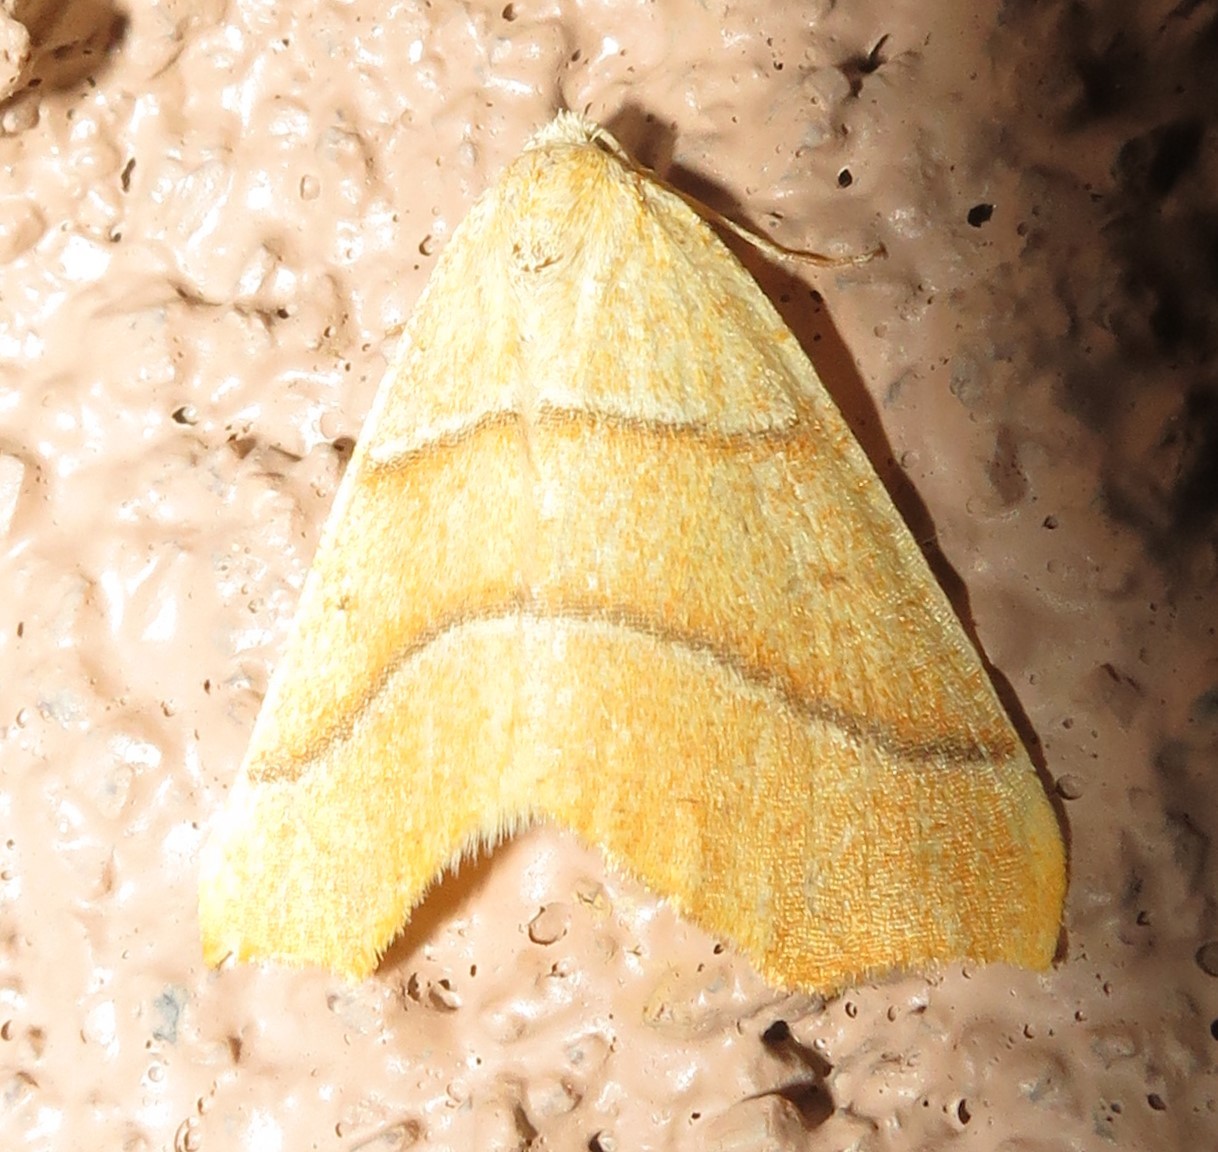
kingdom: Animalia
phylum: Arthropoda
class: Insecta
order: Lepidoptera
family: Geometridae
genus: Destutia
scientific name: Destutia excelsa
